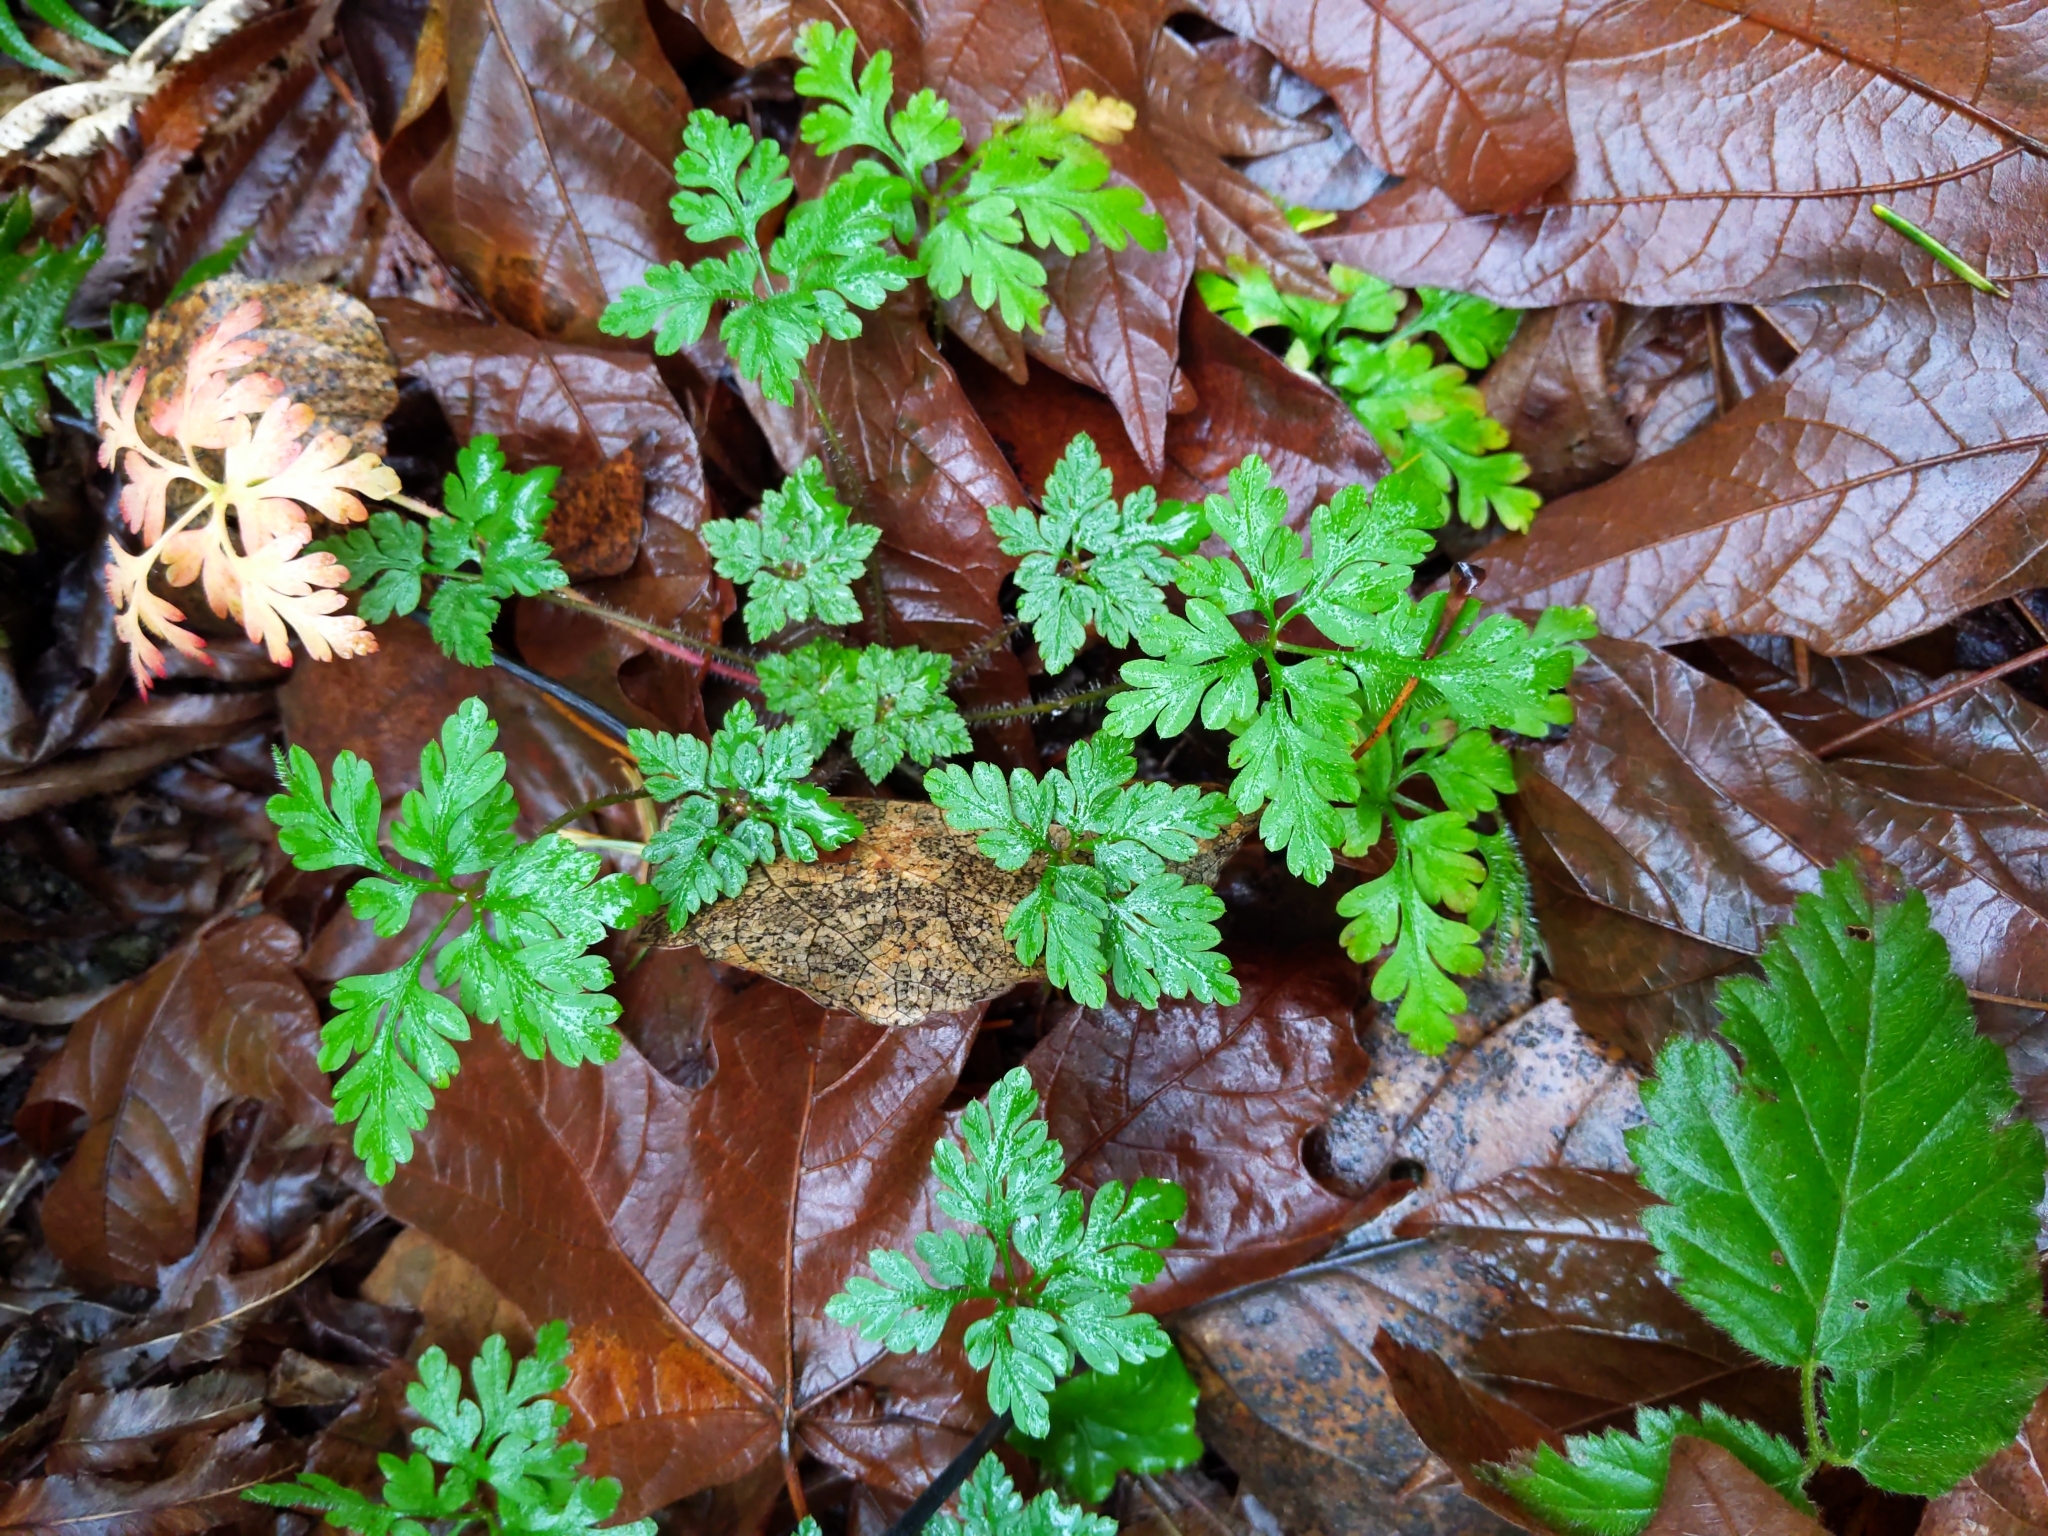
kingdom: Plantae
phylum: Tracheophyta
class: Magnoliopsida
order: Geraniales
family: Geraniaceae
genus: Geranium
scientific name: Geranium robertianum
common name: Herb-robert
